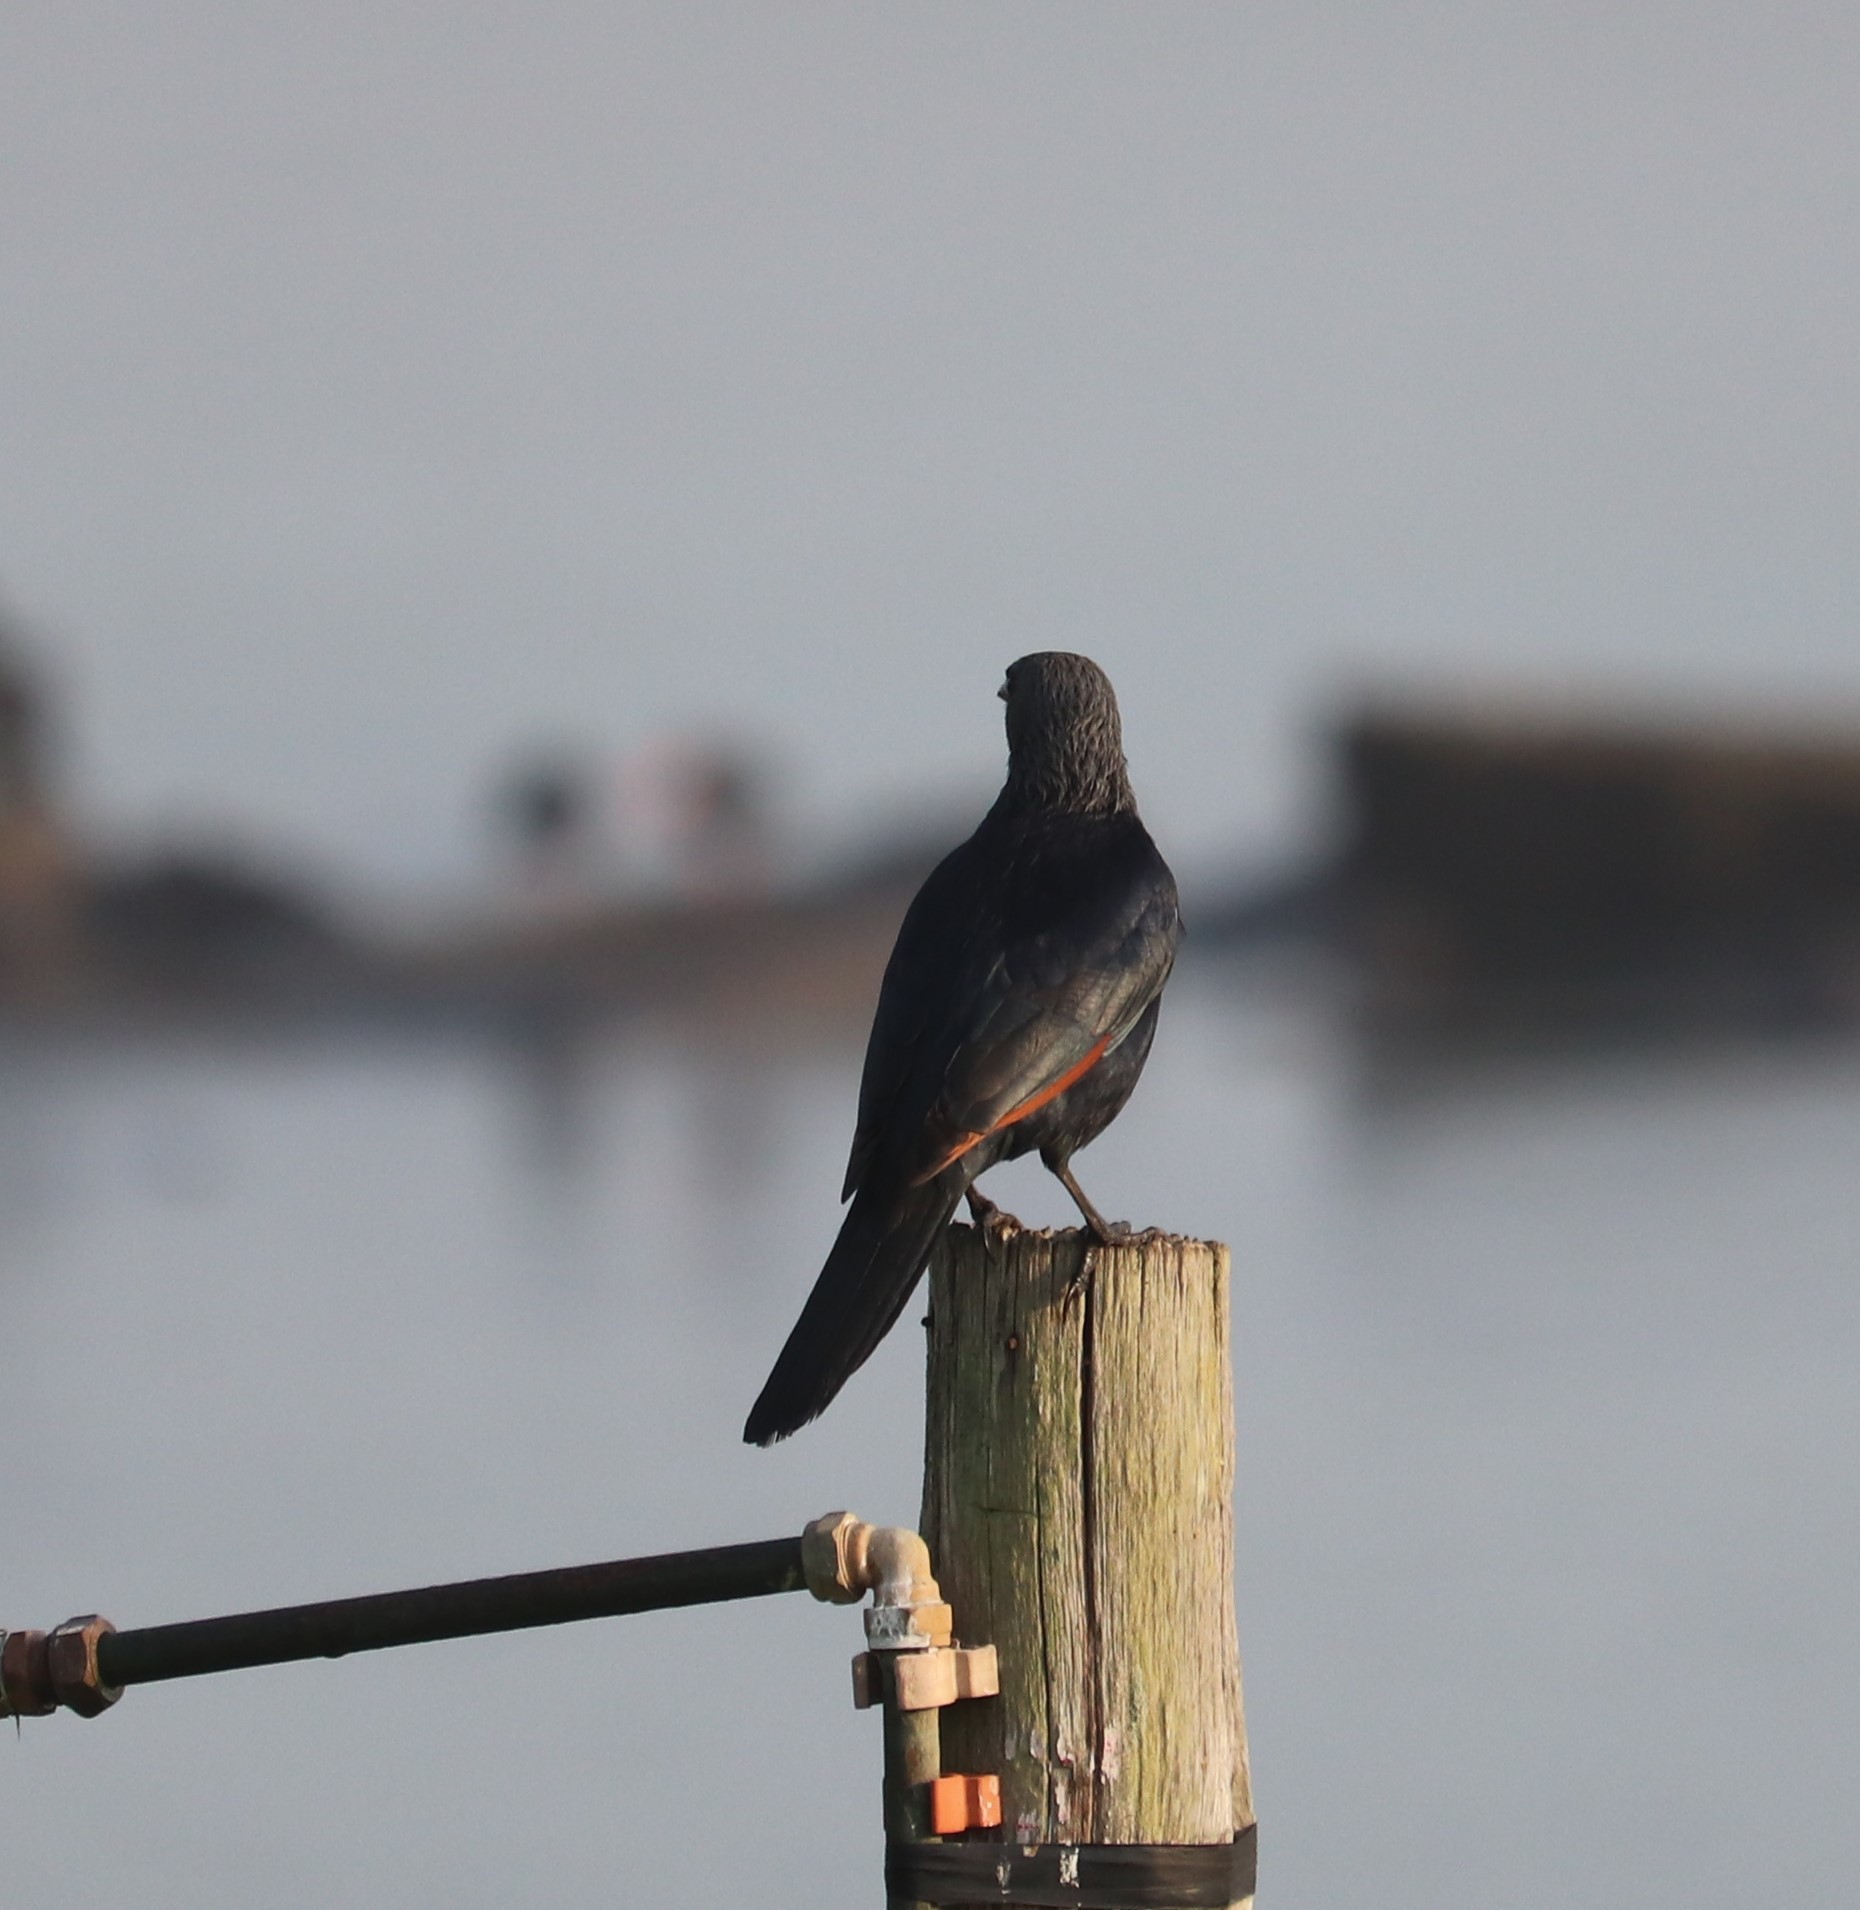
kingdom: Animalia
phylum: Chordata
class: Aves
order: Passeriformes
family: Sturnidae
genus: Onychognathus
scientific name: Onychognathus morio
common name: Red-winged starling
